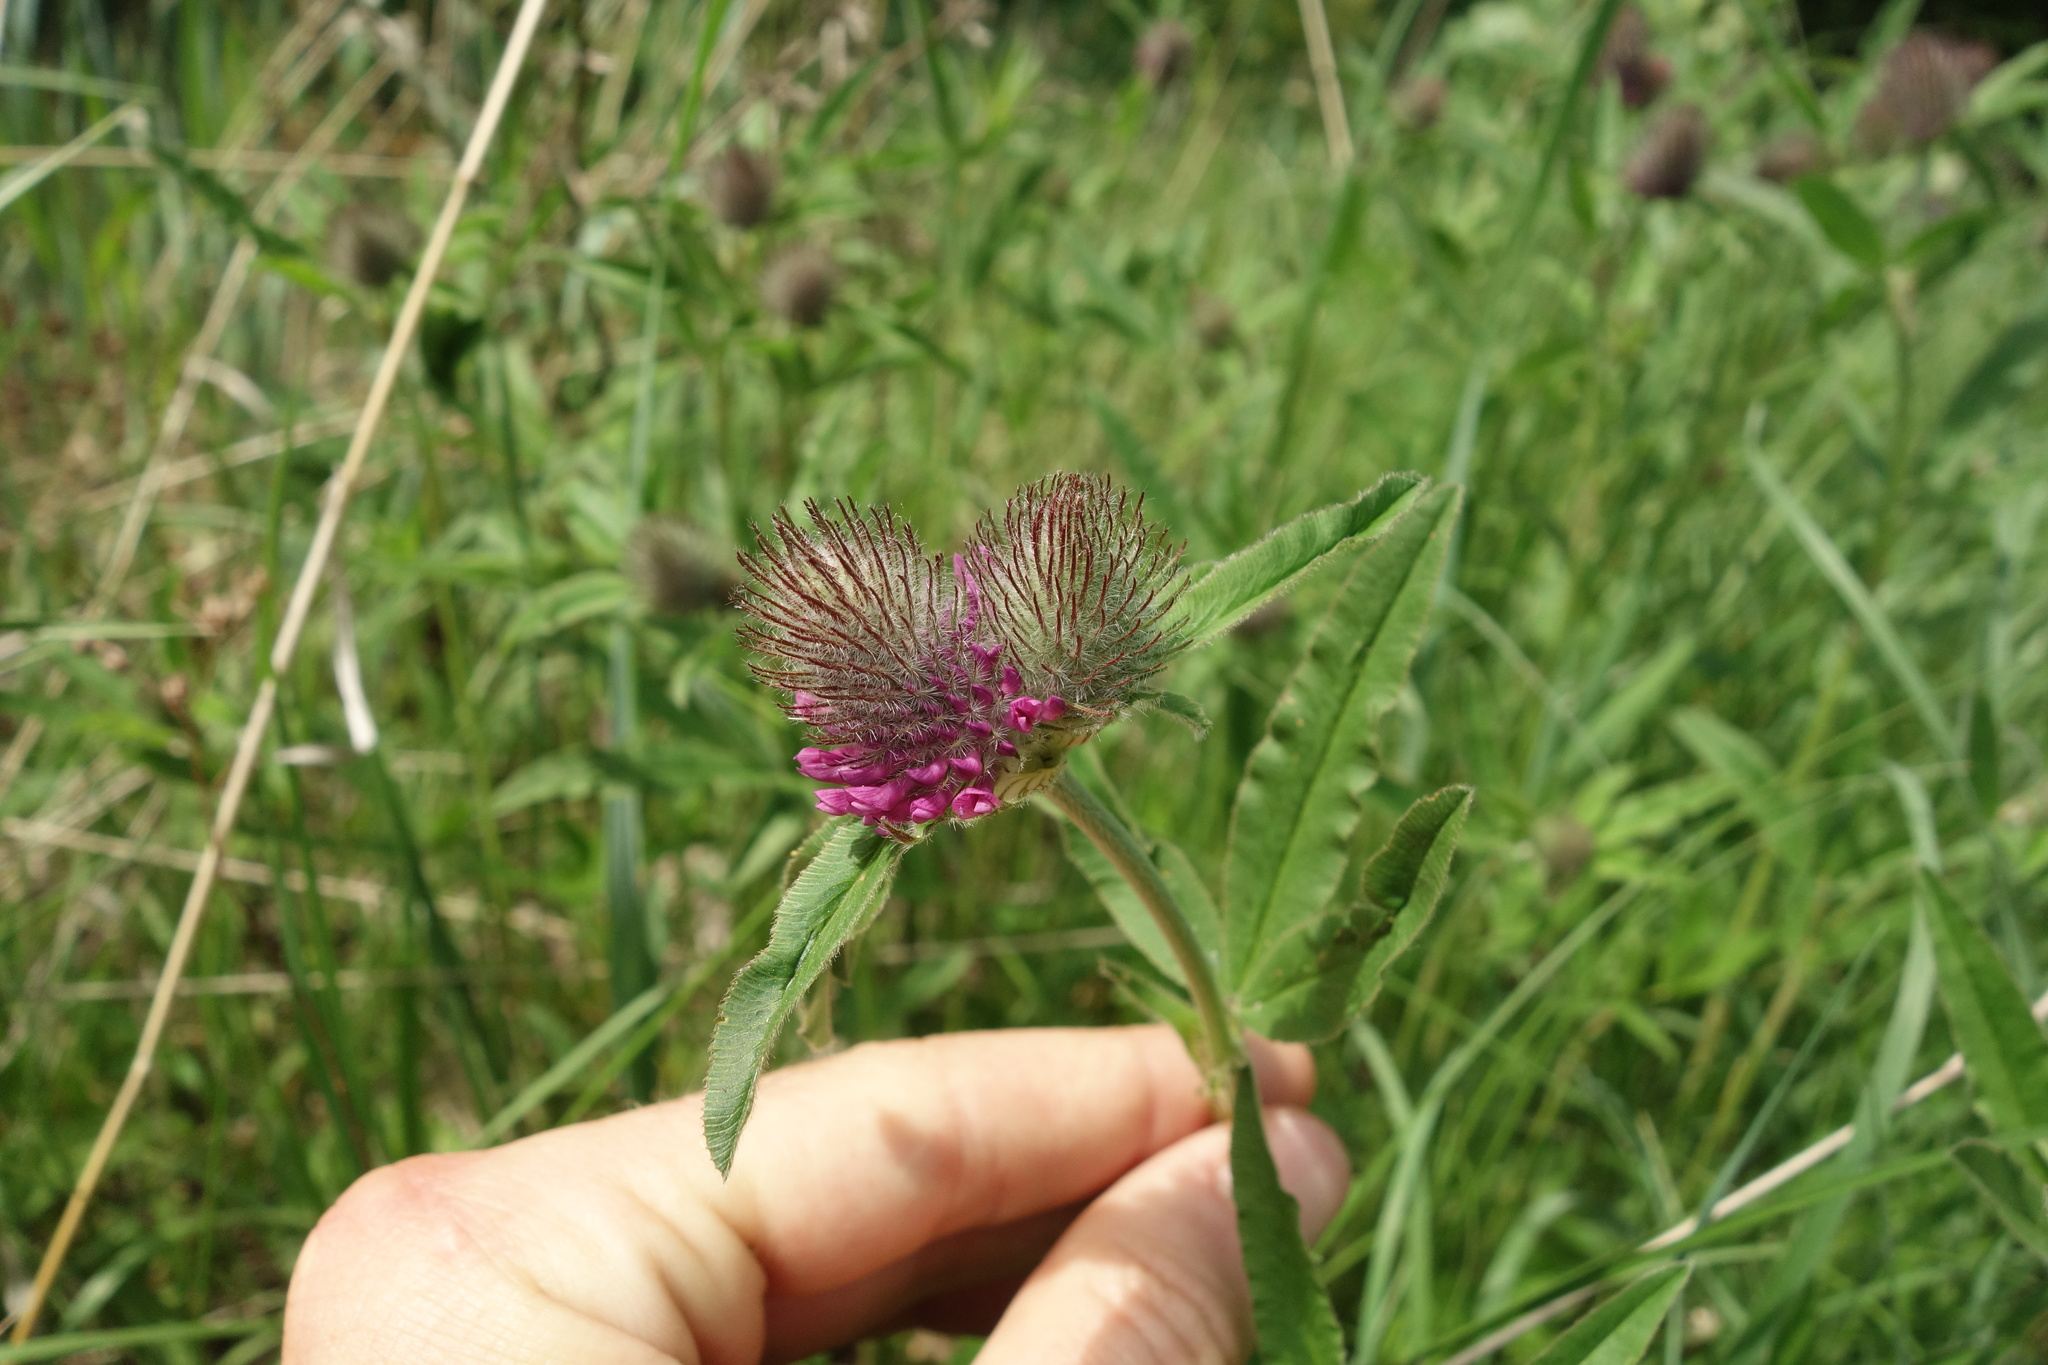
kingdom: Plantae
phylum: Tracheophyta
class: Magnoliopsida
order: Fabales
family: Fabaceae
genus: Trifolium
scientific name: Trifolium alpestre
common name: Owl-head clover
